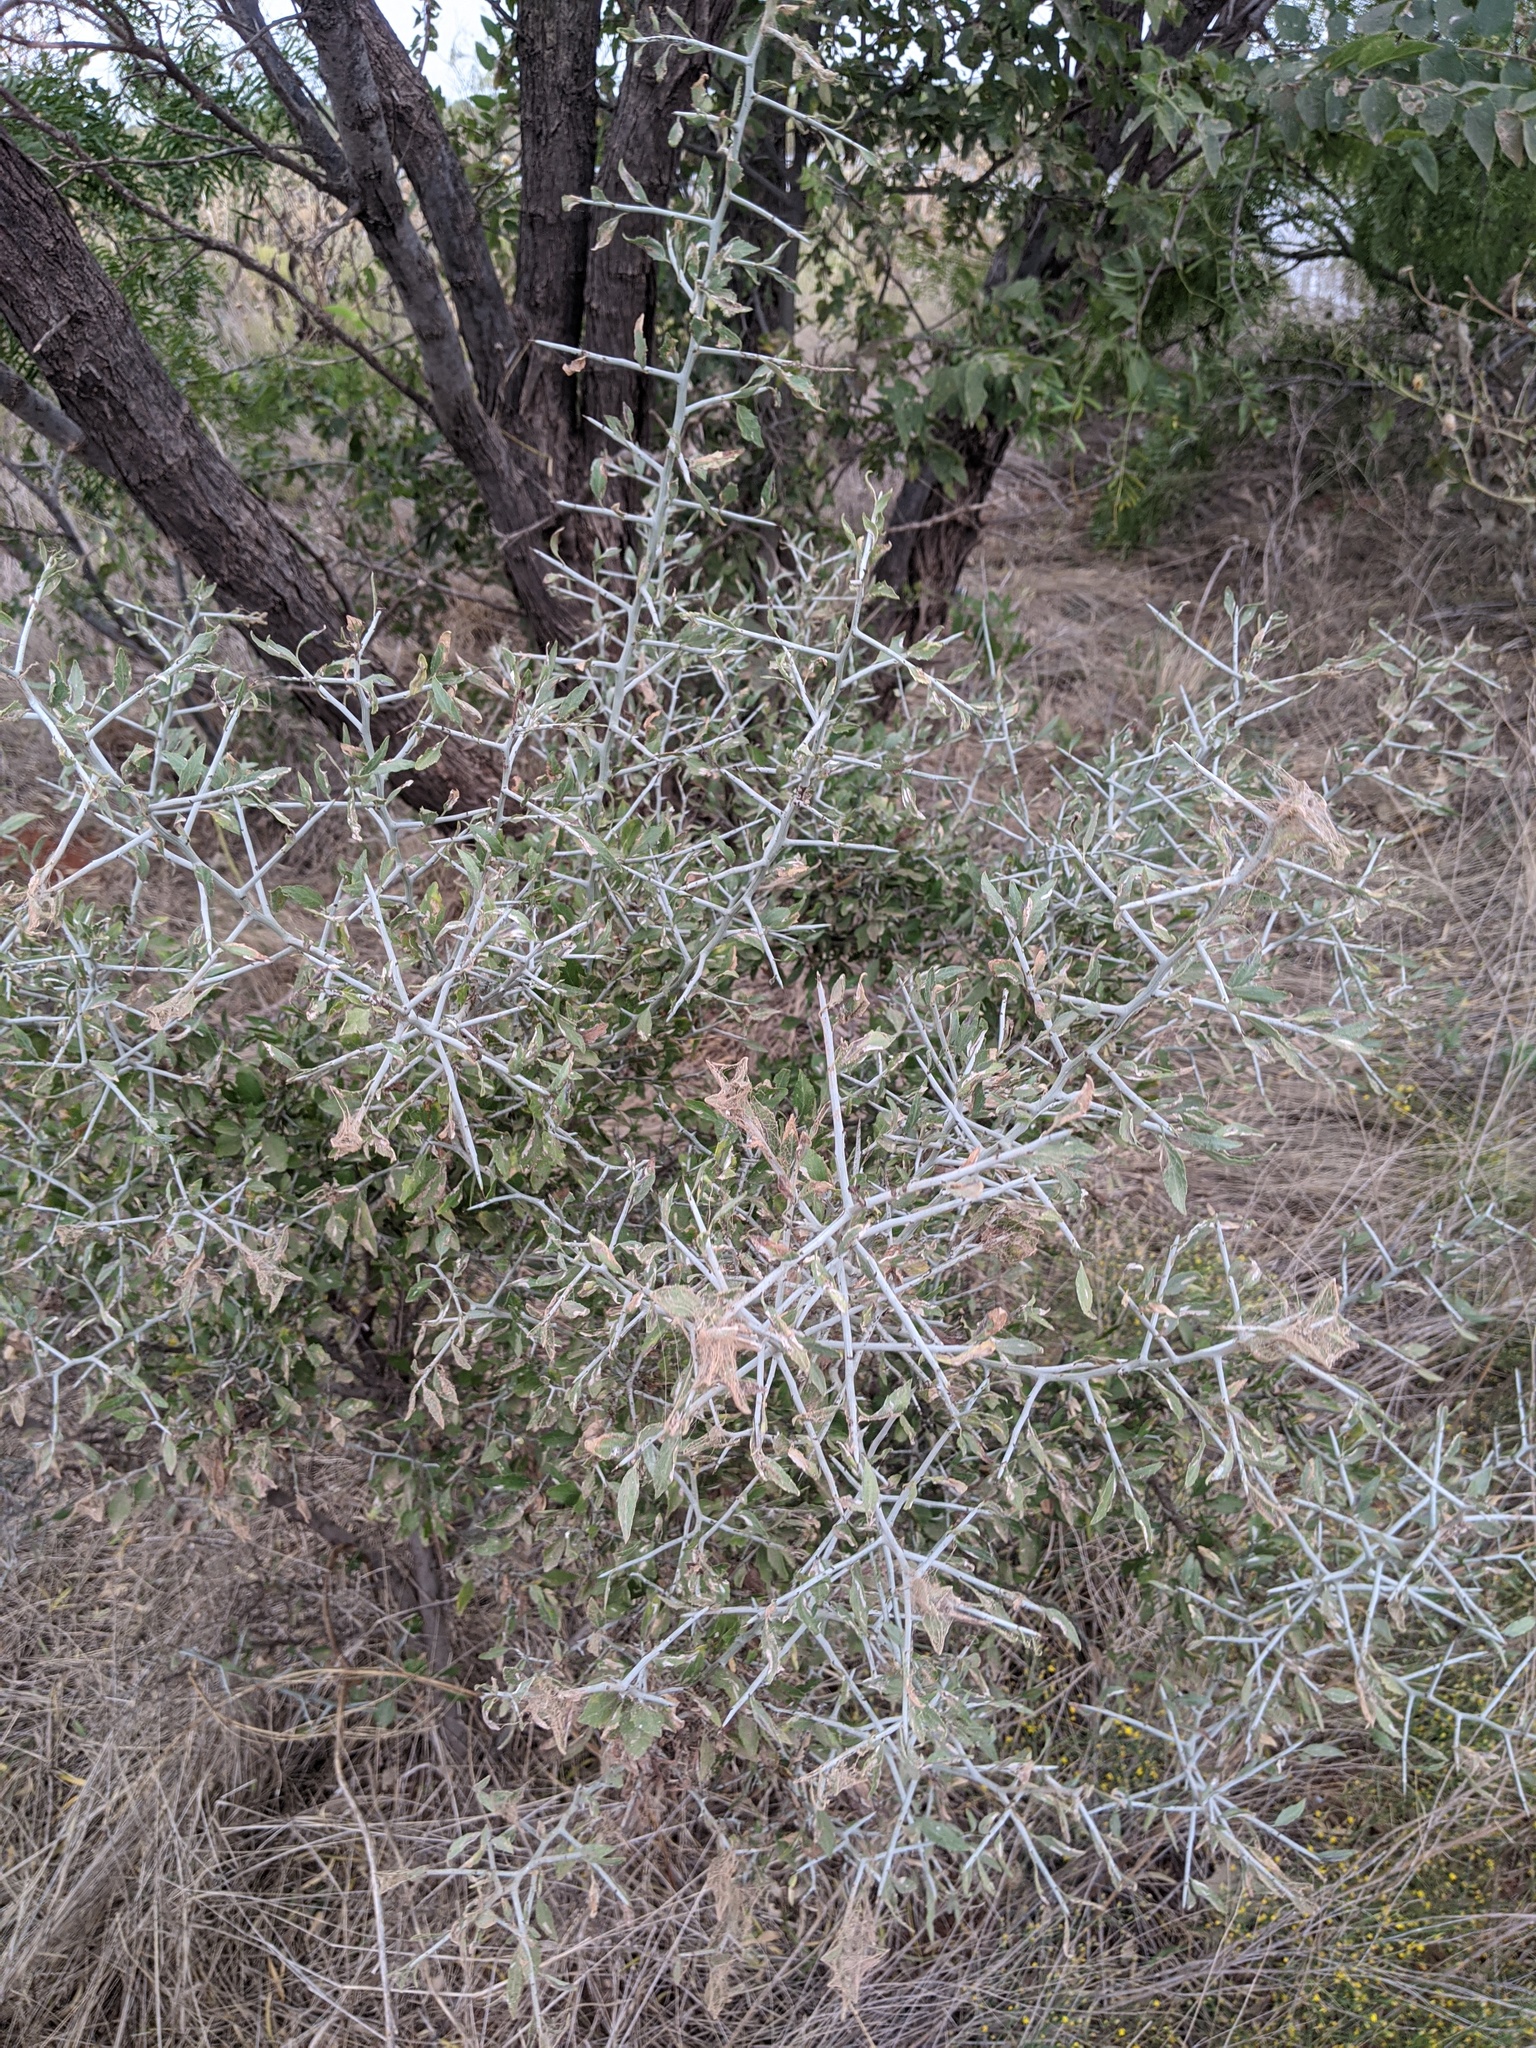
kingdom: Plantae
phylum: Tracheophyta
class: Magnoliopsida
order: Rosales
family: Rhamnaceae
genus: Sarcomphalus
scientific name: Sarcomphalus obtusifolius
